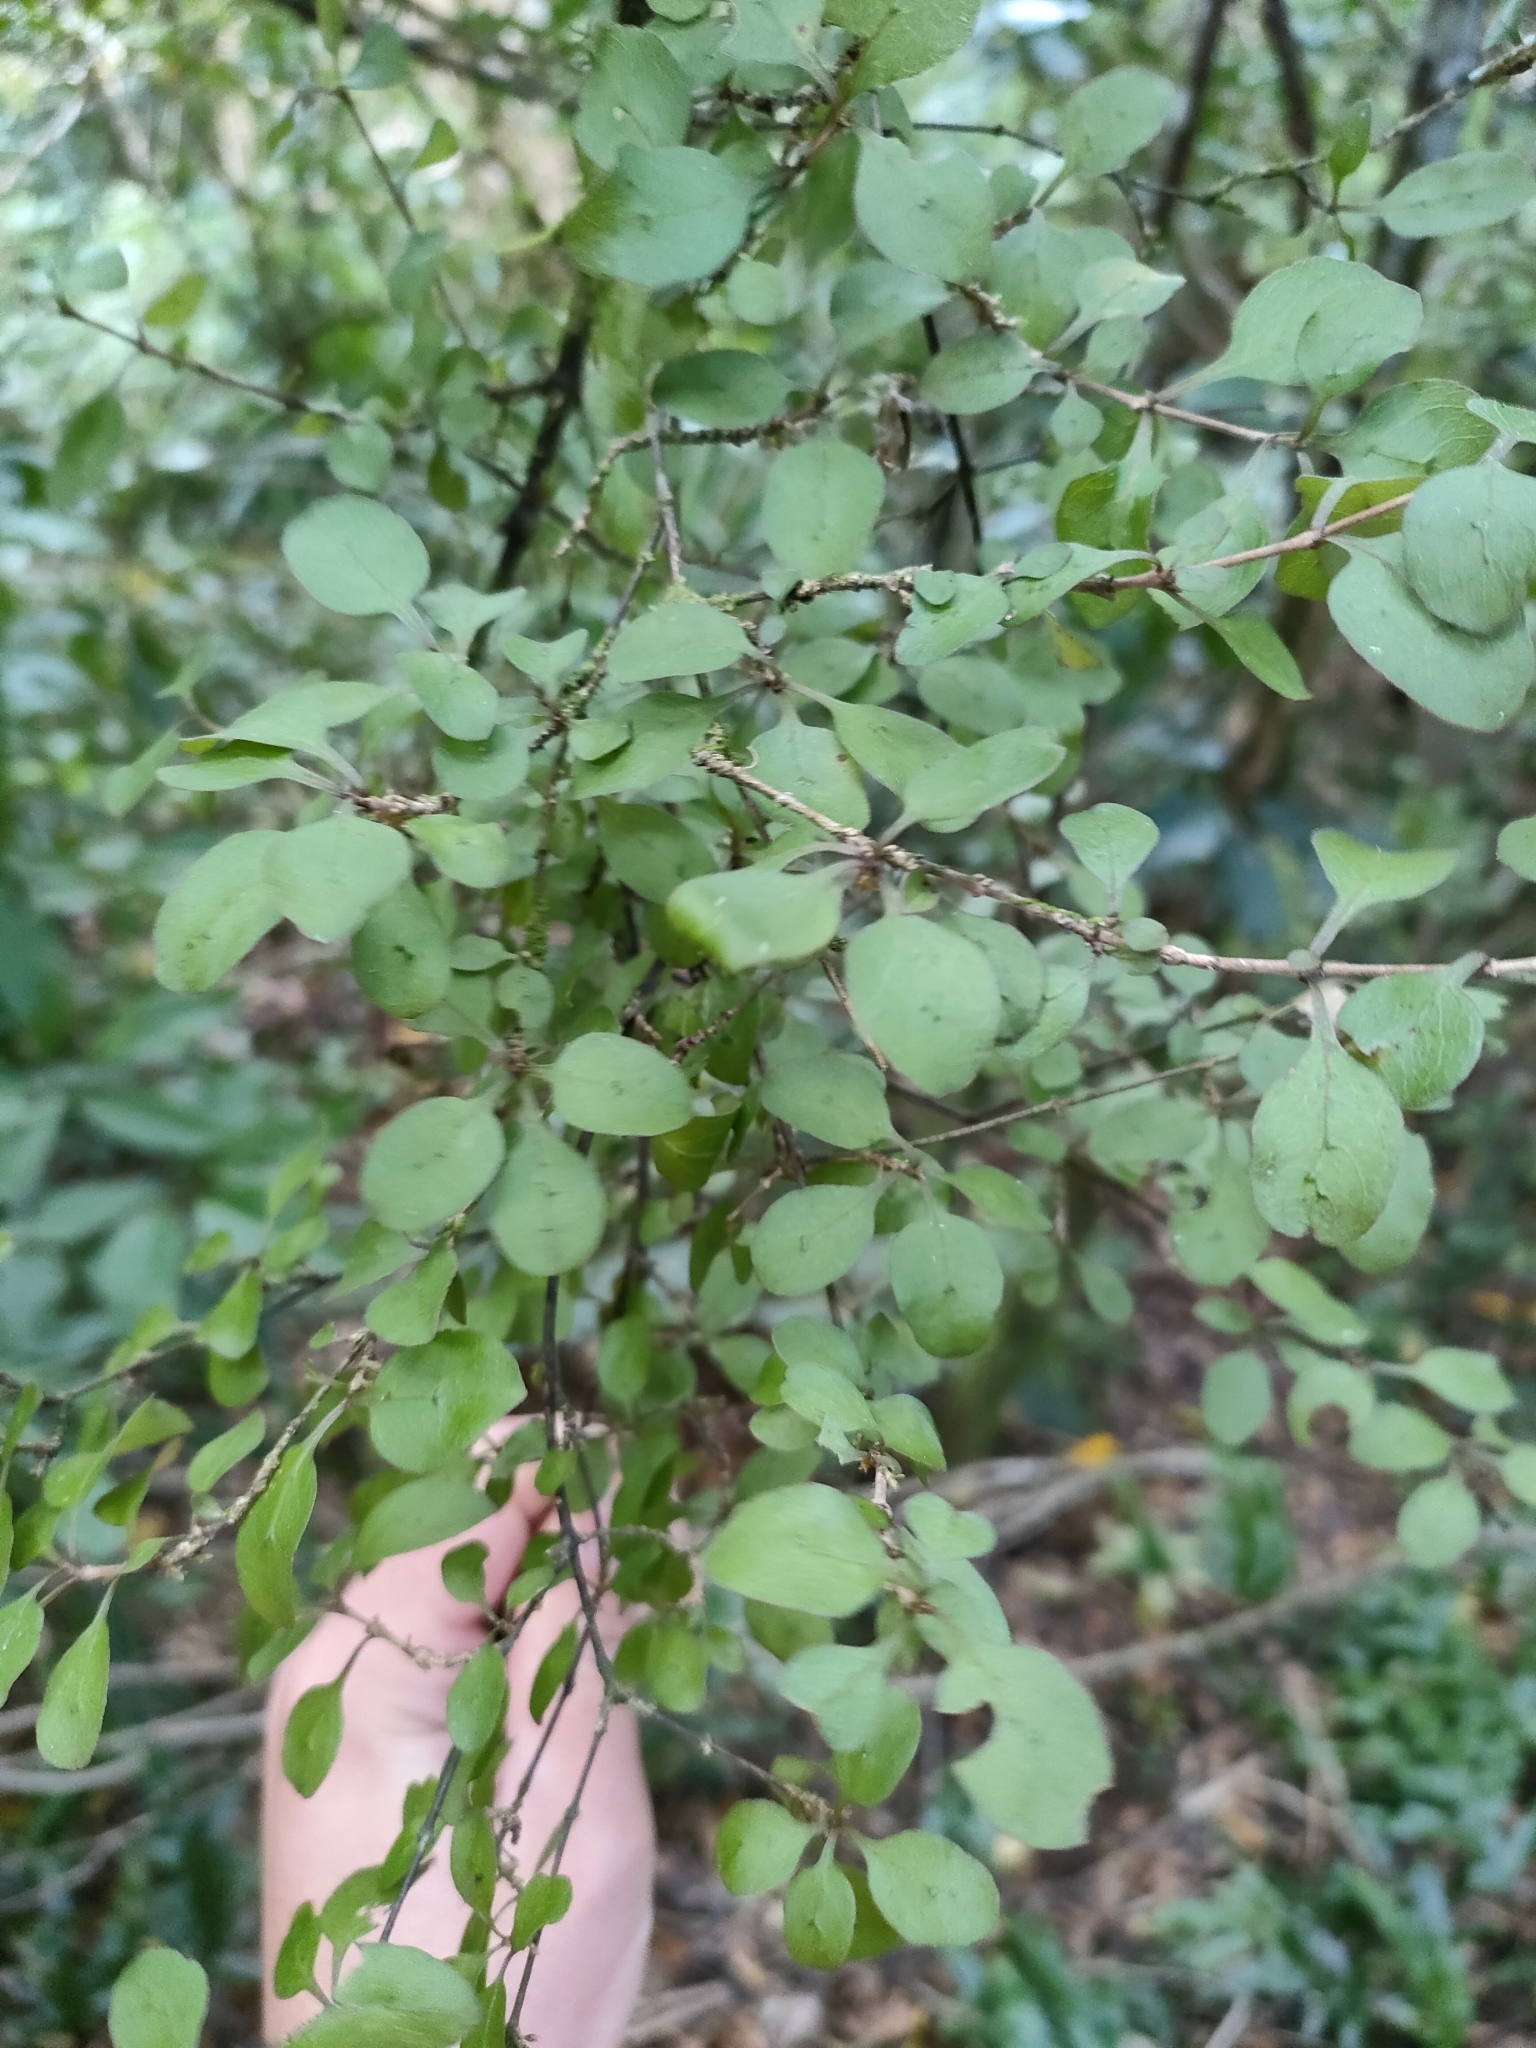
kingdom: Plantae
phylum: Tracheophyta
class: Magnoliopsida
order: Gentianales
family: Rubiaceae
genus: Coprosma
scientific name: Coprosma rubra
